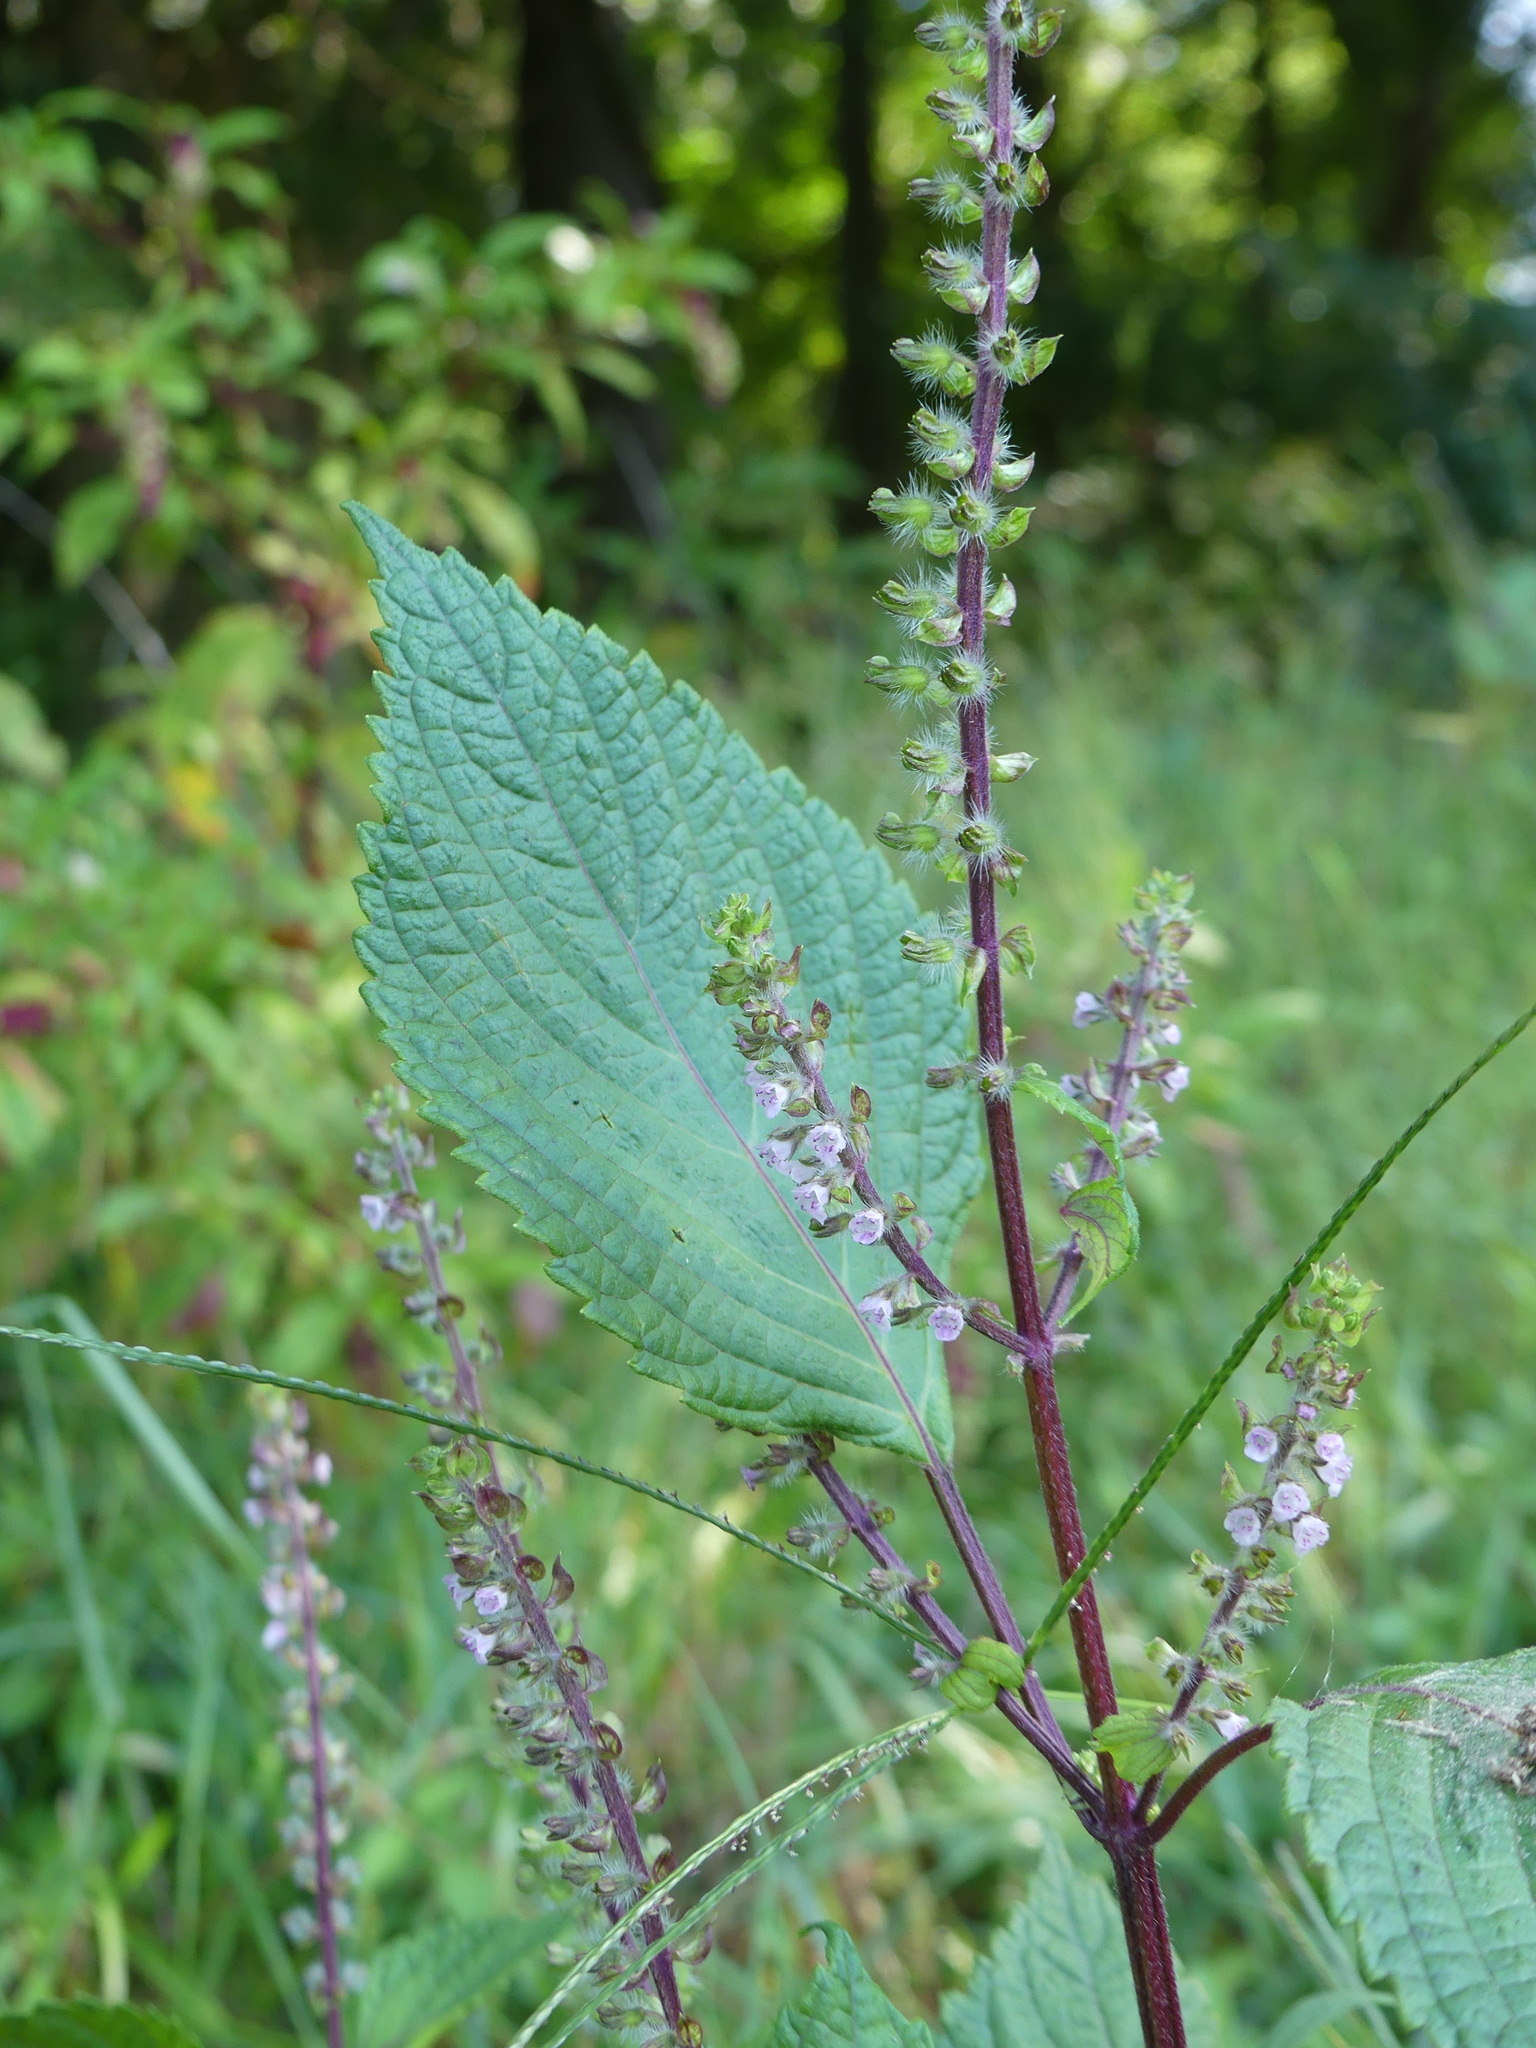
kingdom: Plantae
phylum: Tracheophyta
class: Magnoliopsida
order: Lamiales
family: Lamiaceae
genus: Perilla
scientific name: Perilla frutescens
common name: Perilla
